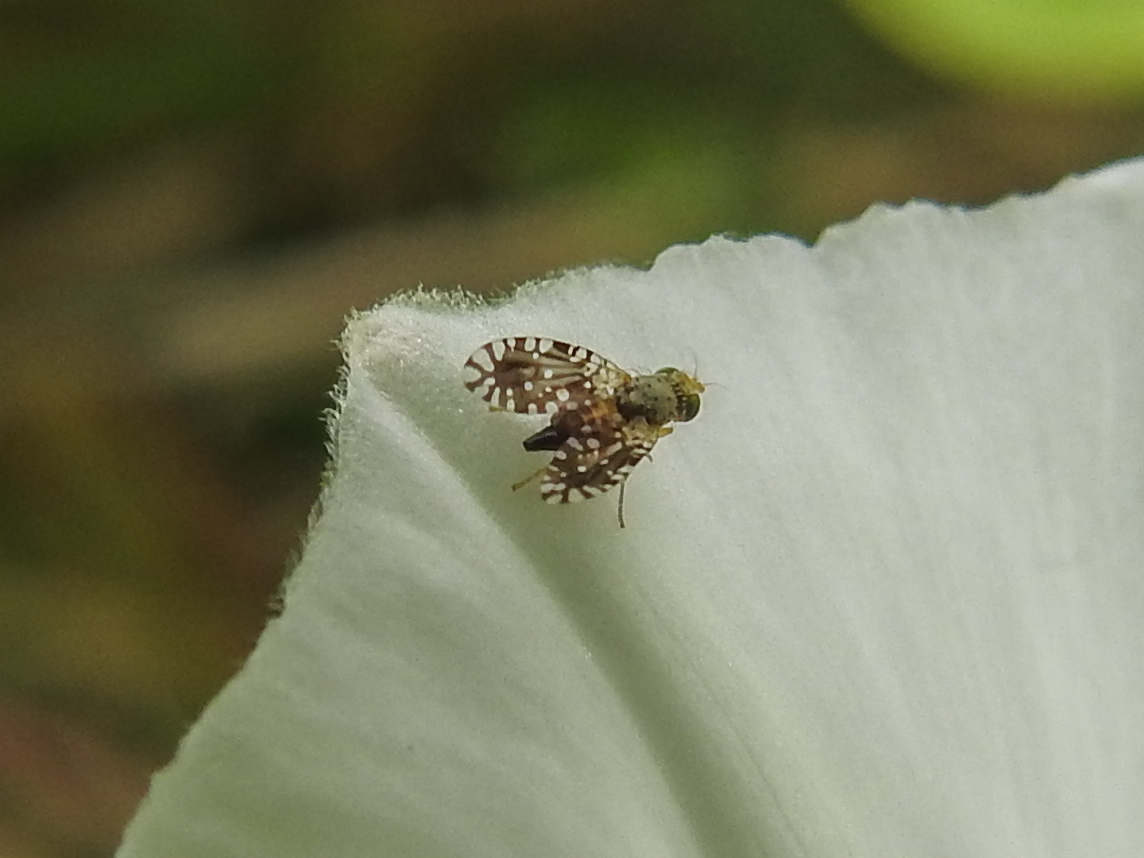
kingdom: Animalia
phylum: Arthropoda
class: Insecta
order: Diptera
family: Tephritidae
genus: Euaresta
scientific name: Euaresta bella
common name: Common ragweed fruit fly
